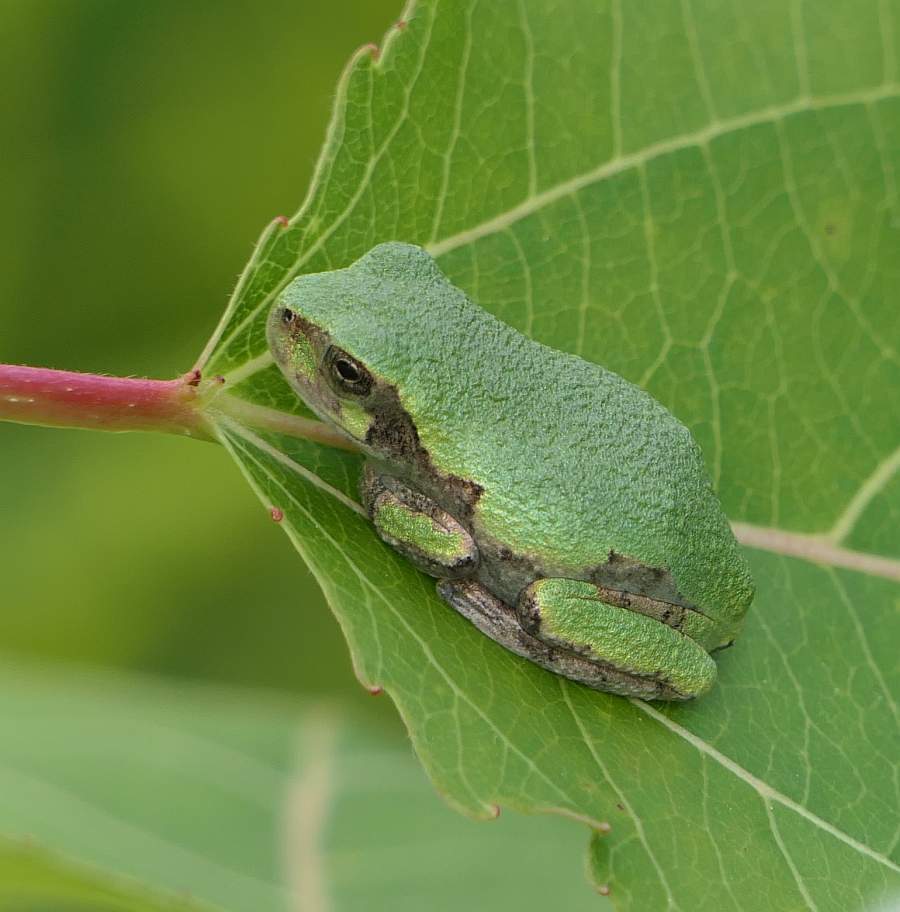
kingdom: Animalia
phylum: Chordata
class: Amphibia
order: Anura
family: Hylidae
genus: Dryophytes
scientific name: Dryophytes versicolor
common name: Gray treefrog
